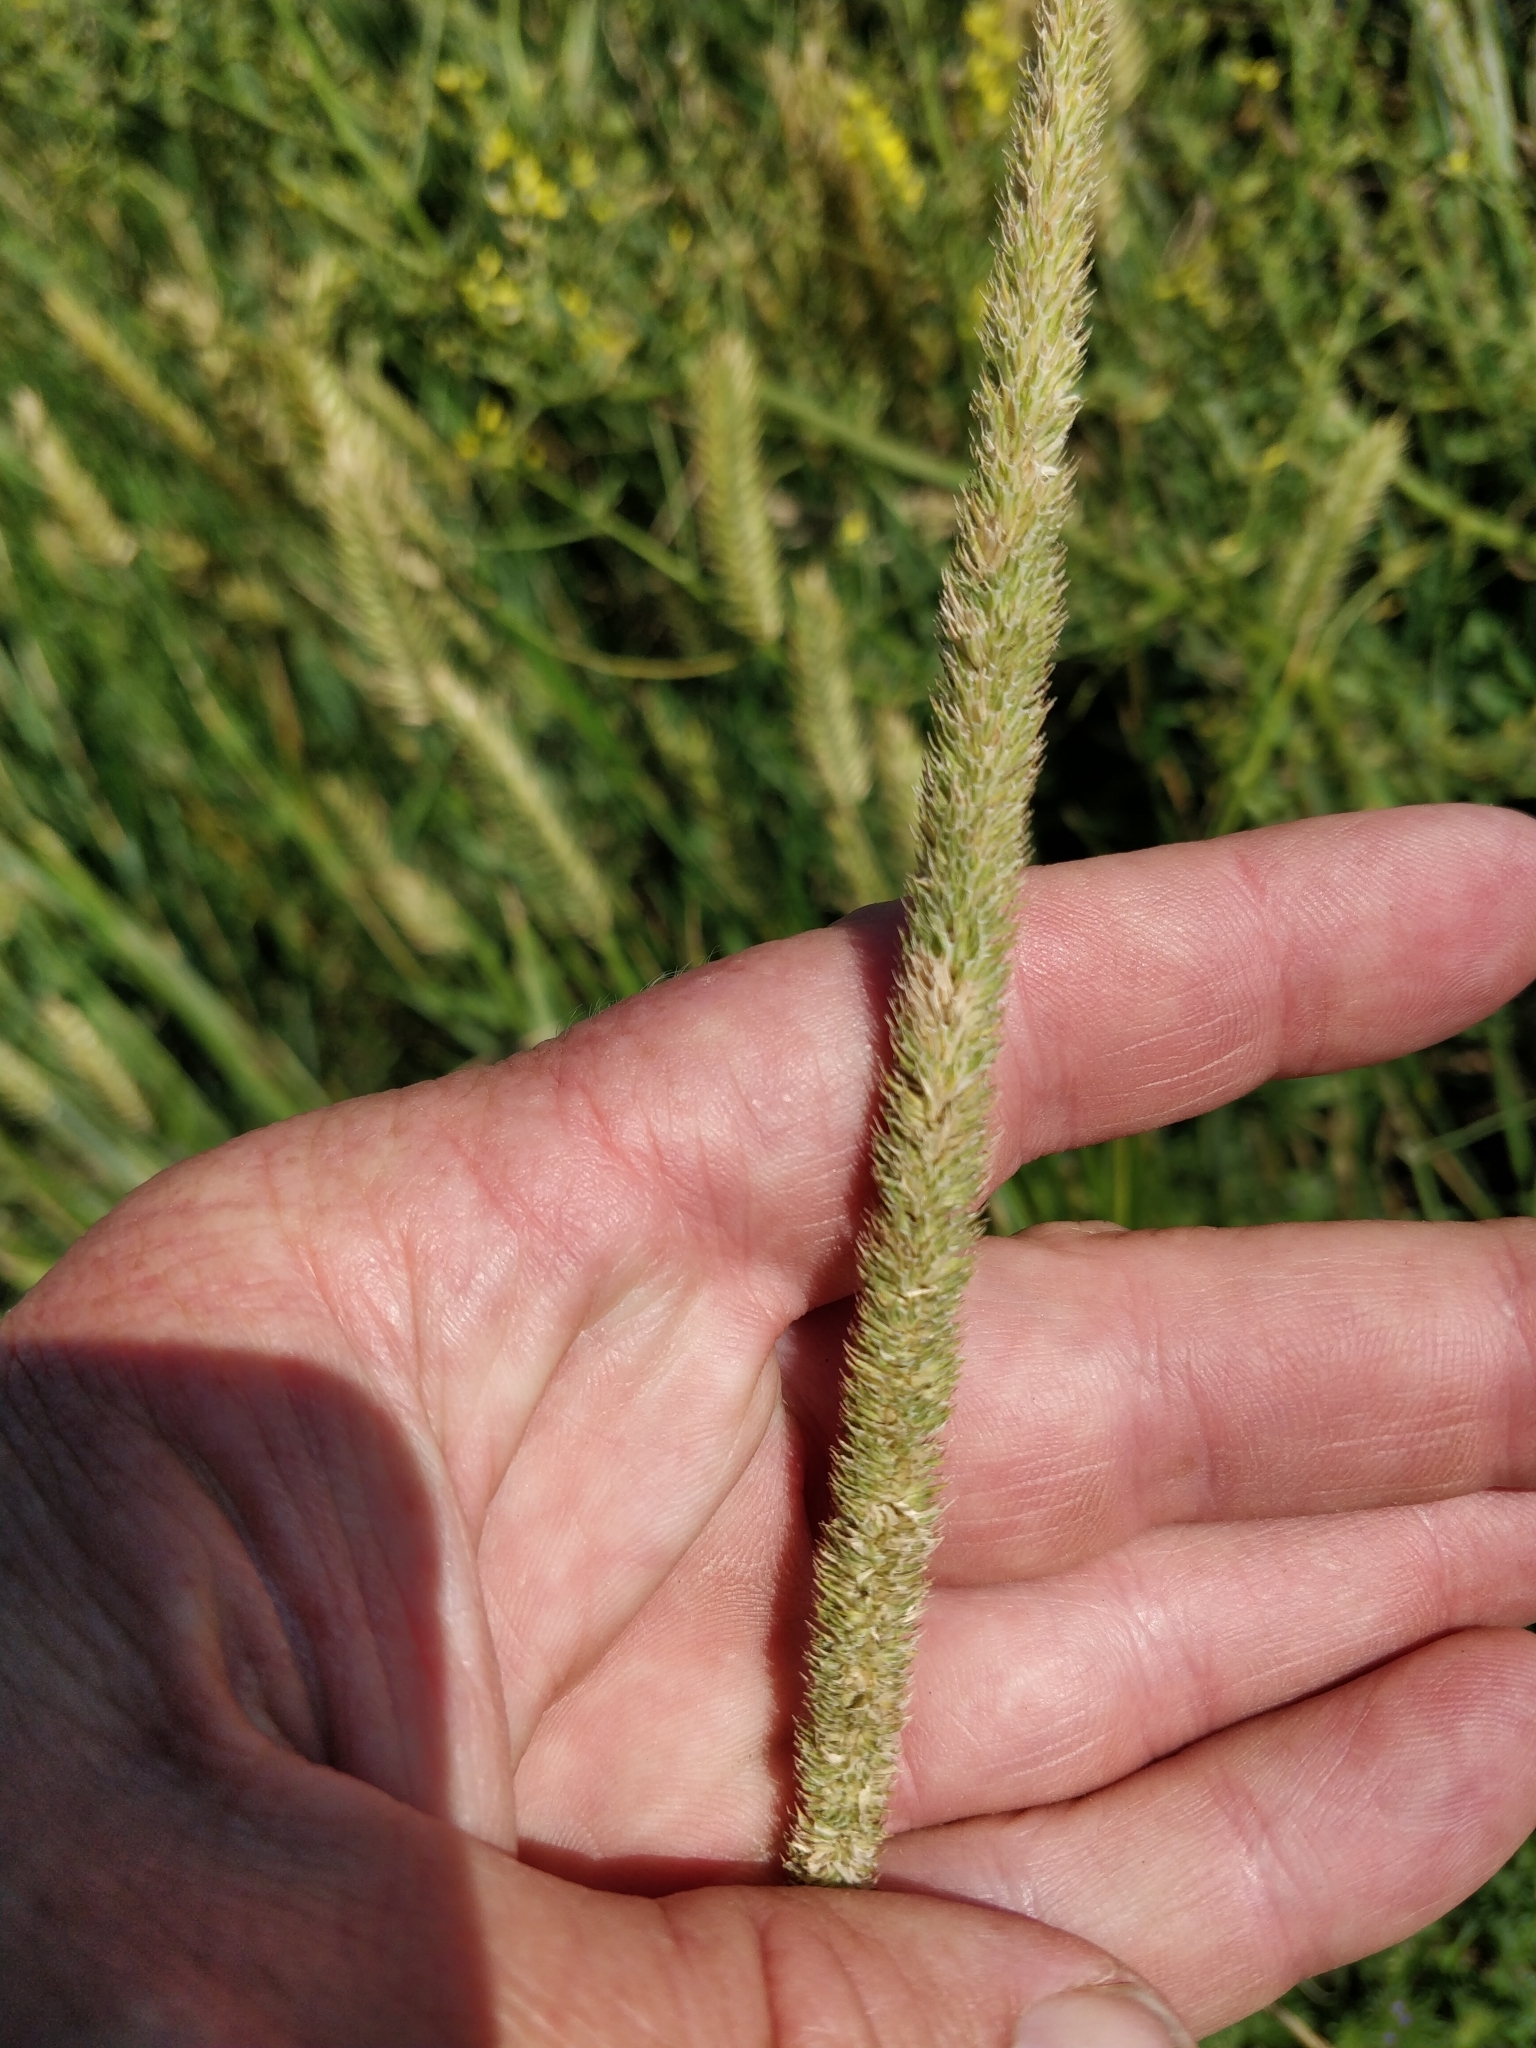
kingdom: Plantae
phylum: Tracheophyta
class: Liliopsida
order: Poales
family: Poaceae
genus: Phleum
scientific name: Phleum pratense
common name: Timothy grass
